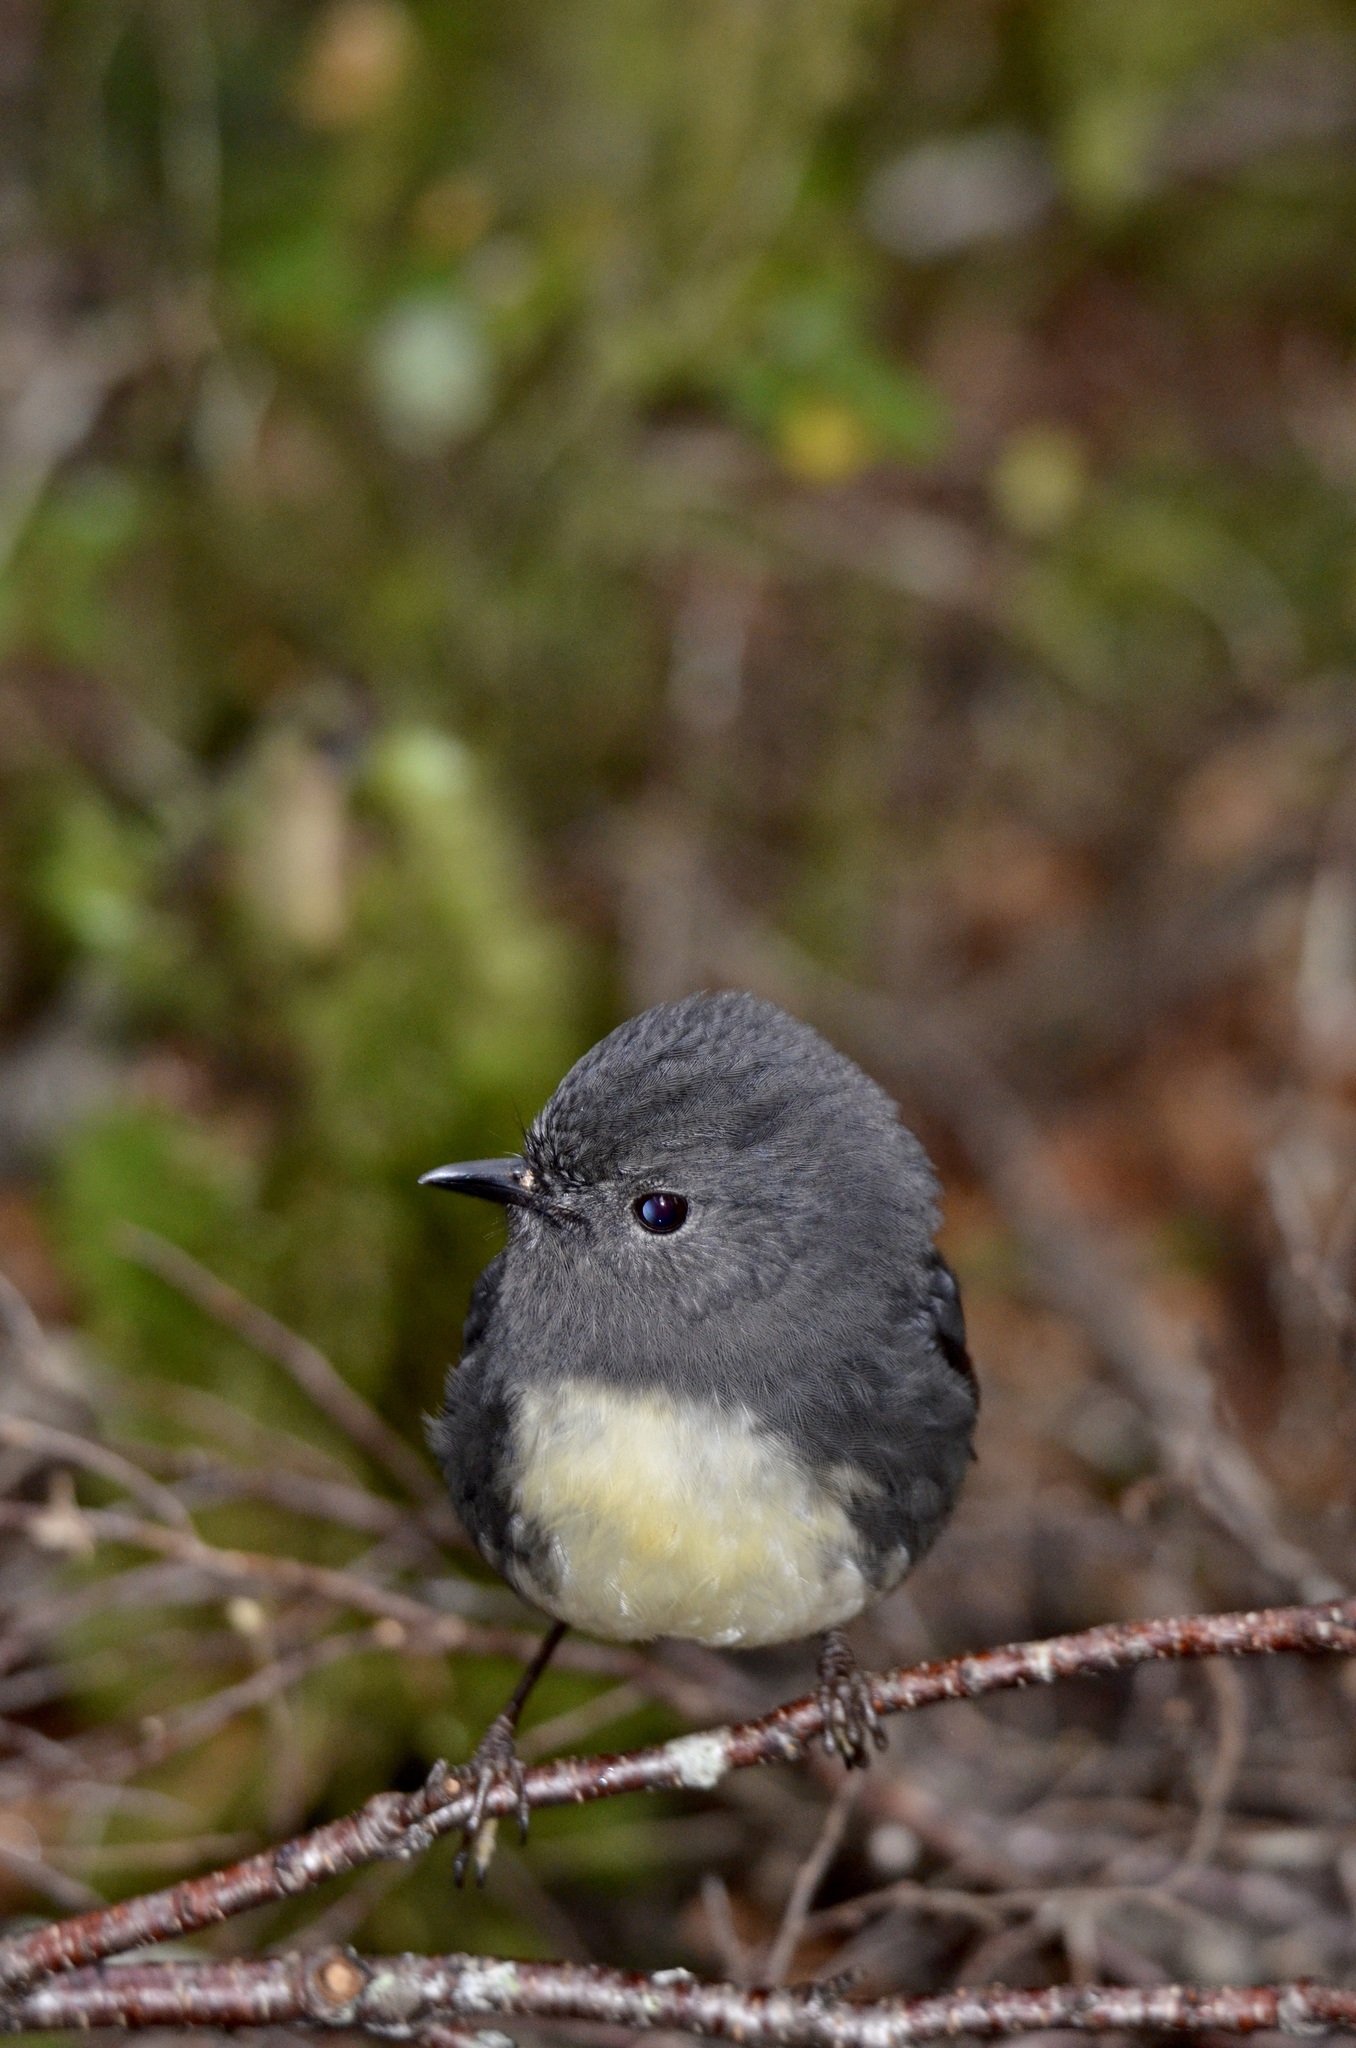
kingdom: Animalia
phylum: Chordata
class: Aves
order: Passeriformes
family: Petroicidae
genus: Petroica
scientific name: Petroica australis
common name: New zealand robin
